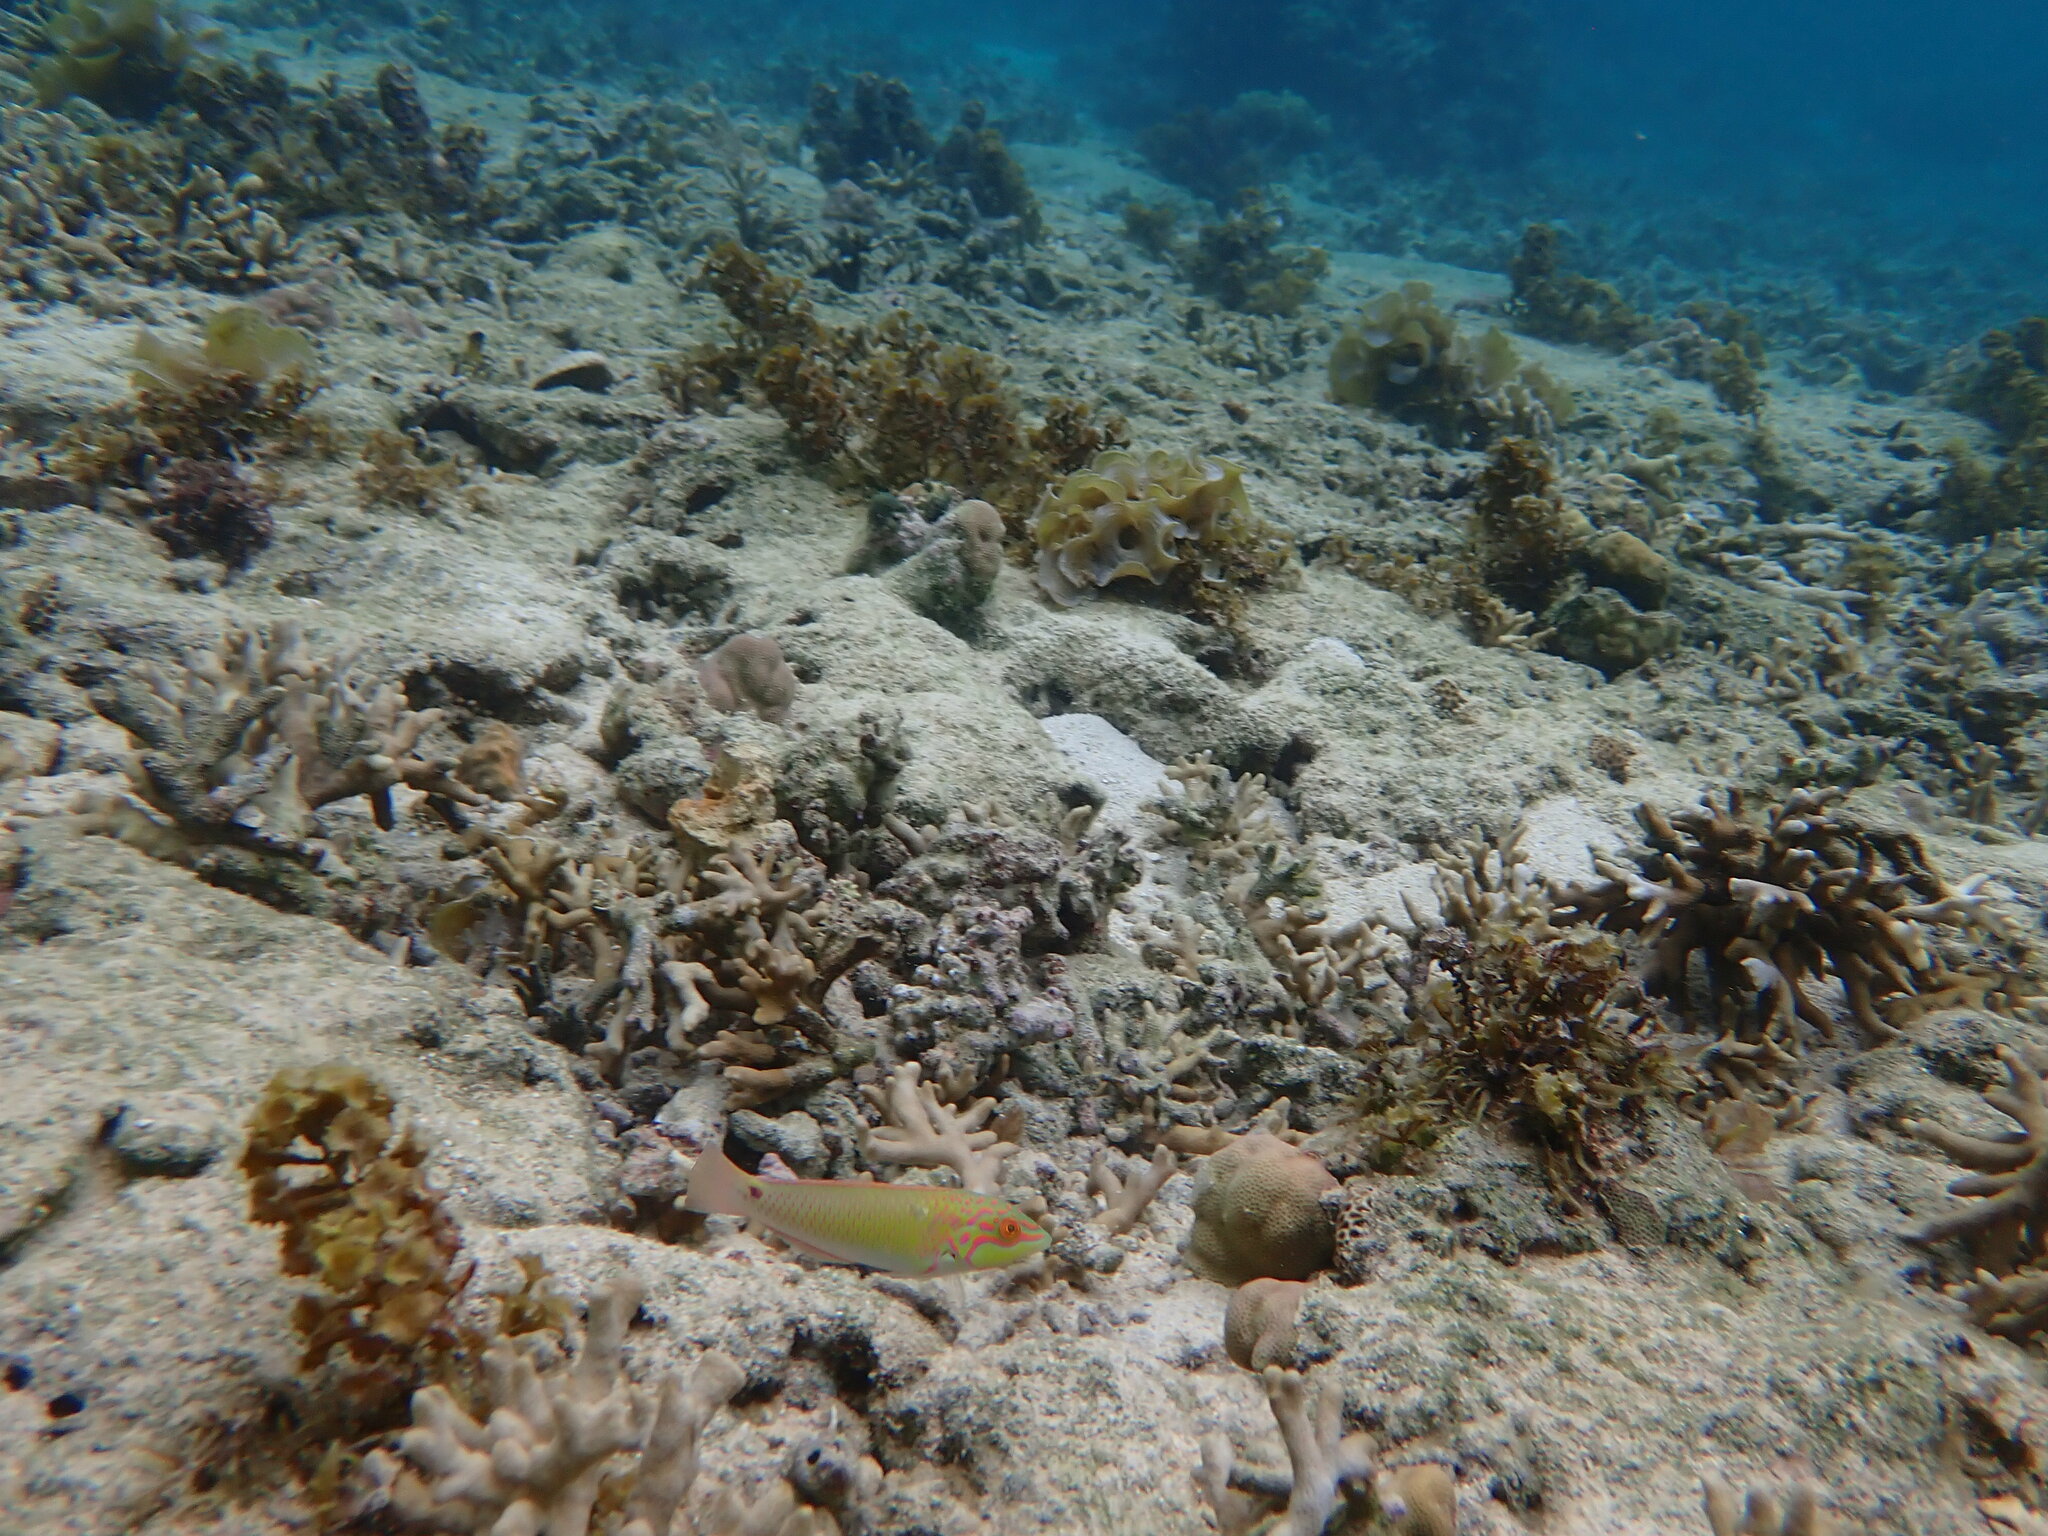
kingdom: Animalia
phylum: Chordata
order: Perciformes
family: Labridae
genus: Halichoeres
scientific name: Halichoeres trimaculatus
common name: Three-spot wrasse
